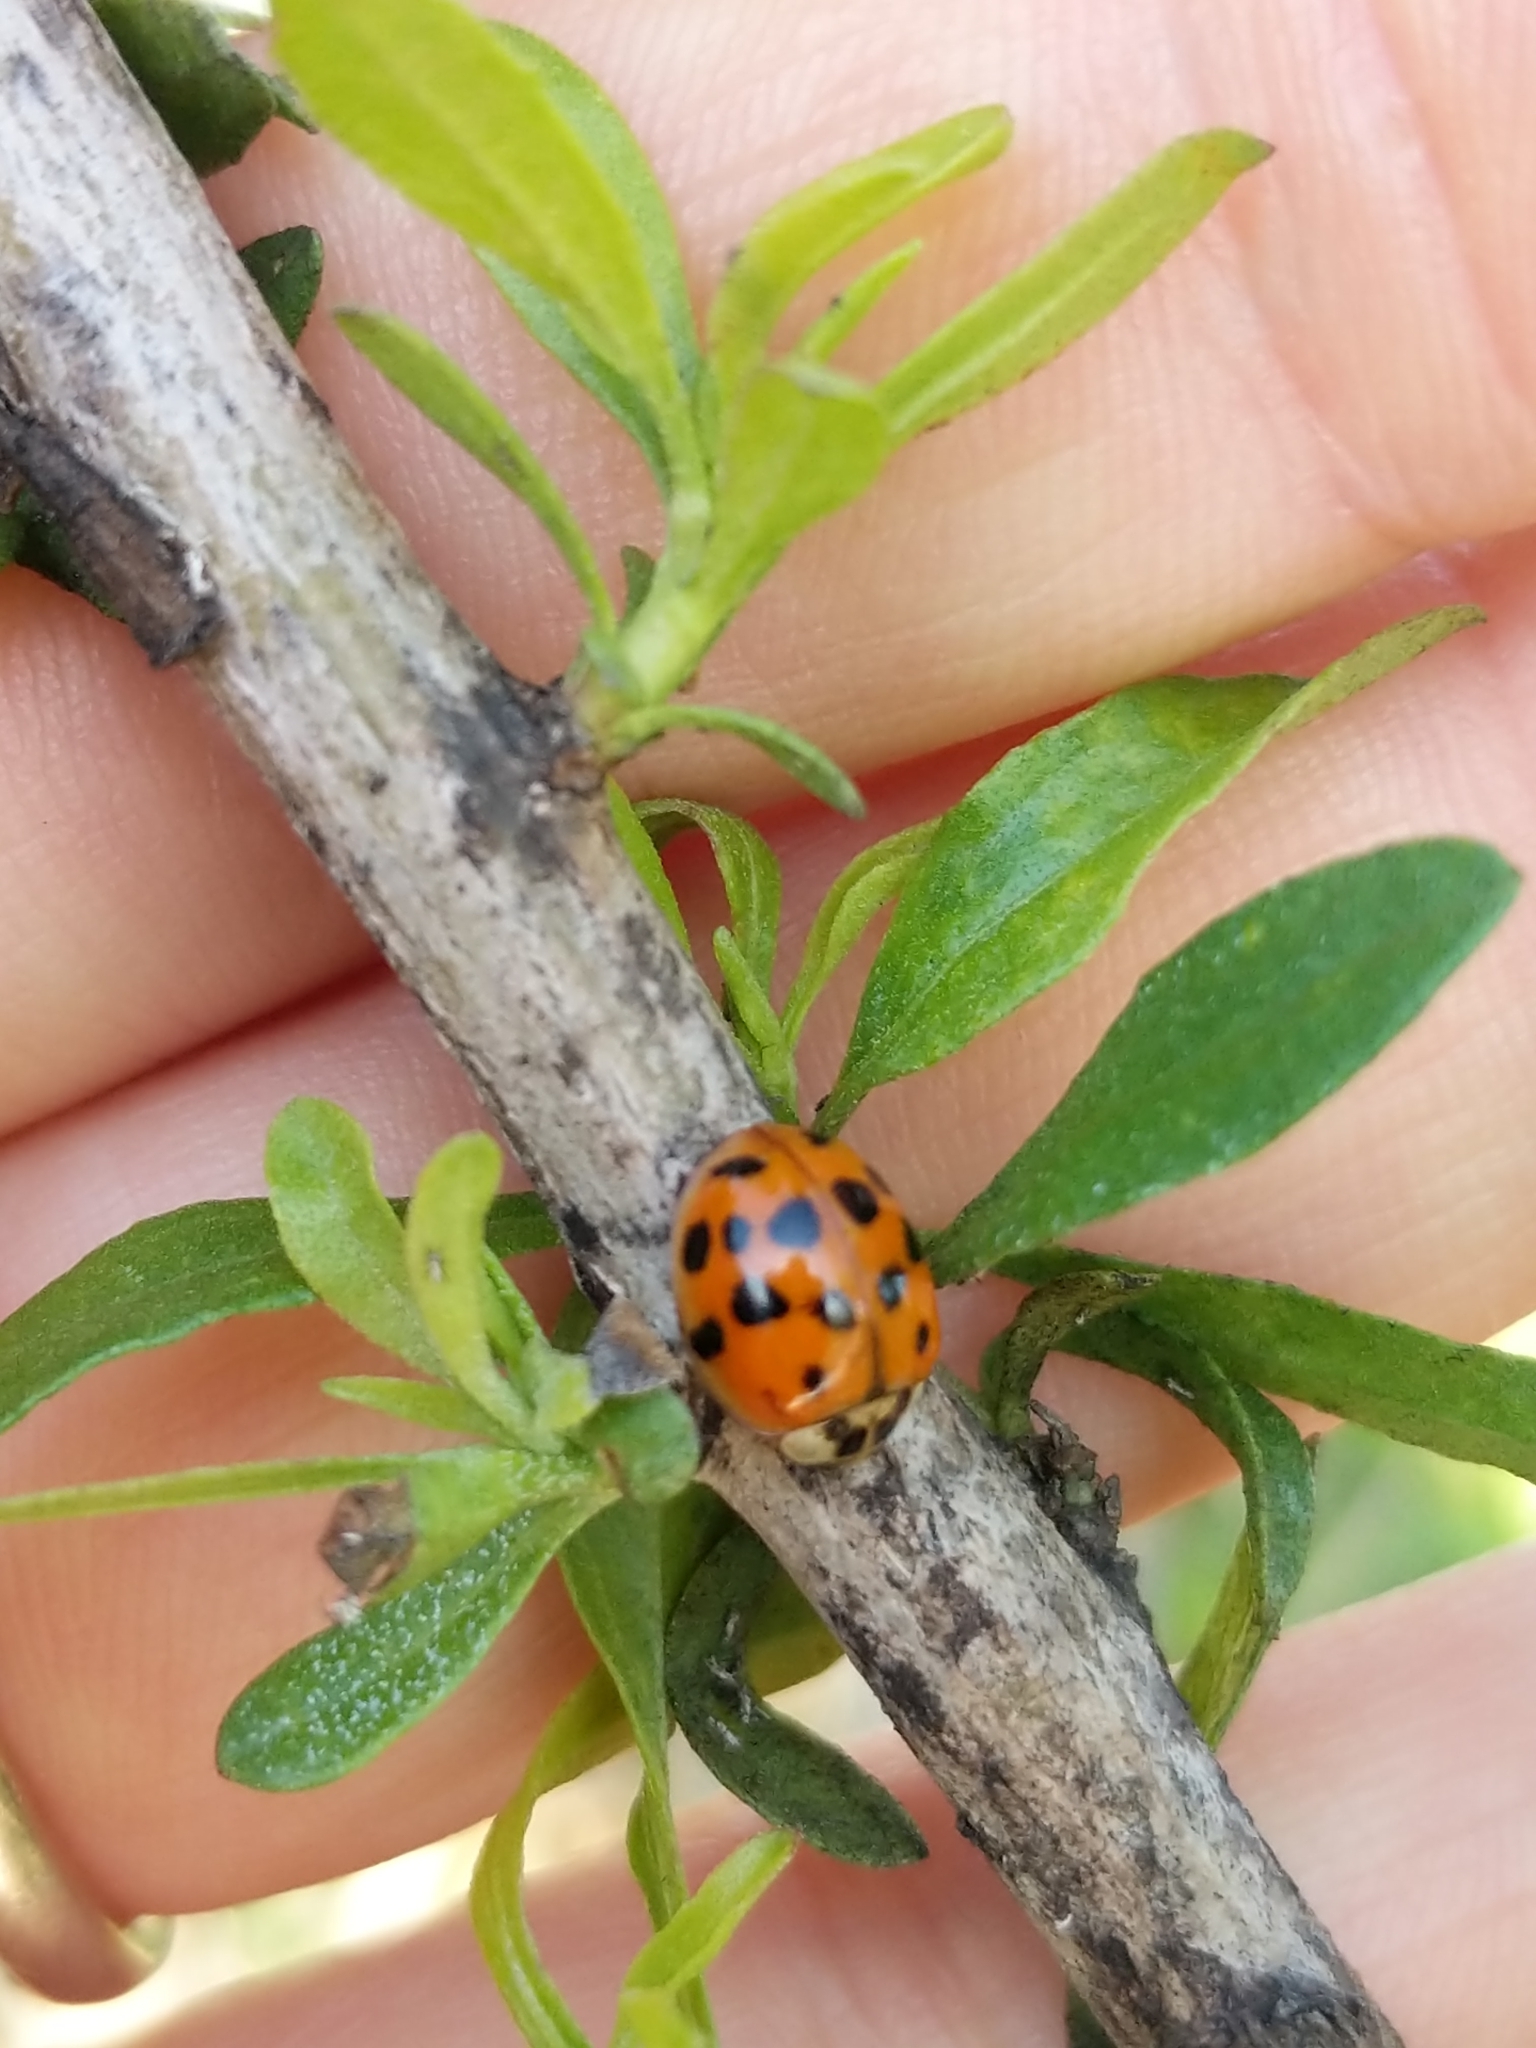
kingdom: Animalia
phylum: Arthropoda
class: Insecta
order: Coleoptera
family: Coccinellidae
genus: Harmonia
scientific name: Harmonia axyridis
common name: Harlequin ladybird
